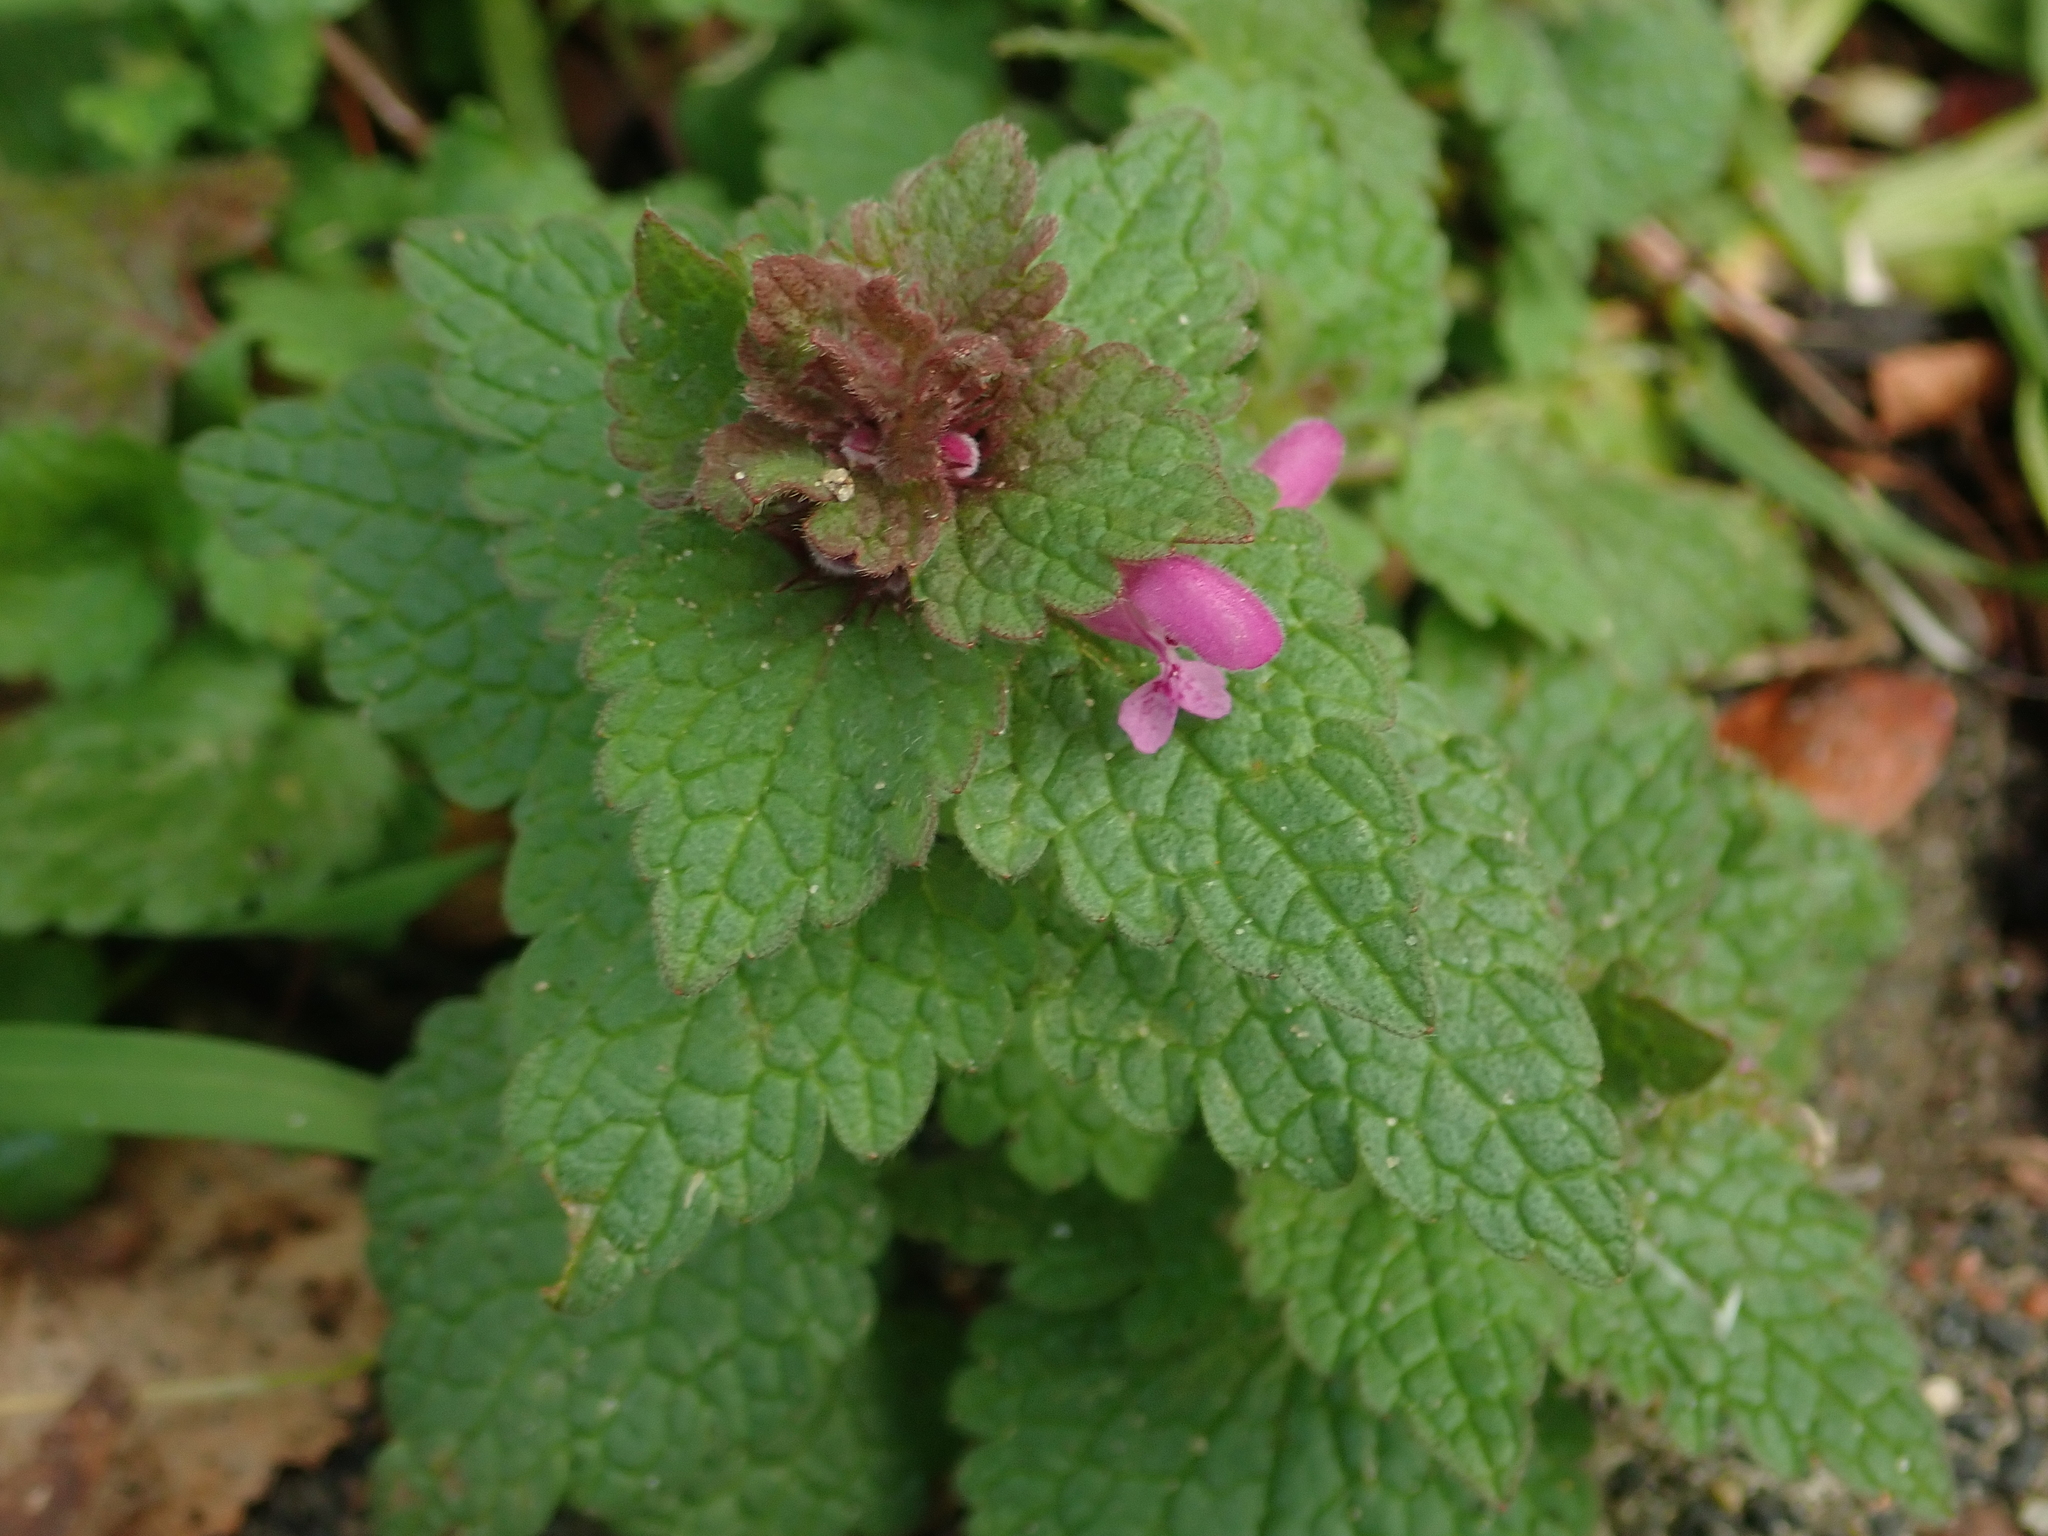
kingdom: Plantae
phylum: Tracheophyta
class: Magnoliopsida
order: Lamiales
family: Lamiaceae
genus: Lamium
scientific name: Lamium purpureum
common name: Red dead-nettle
